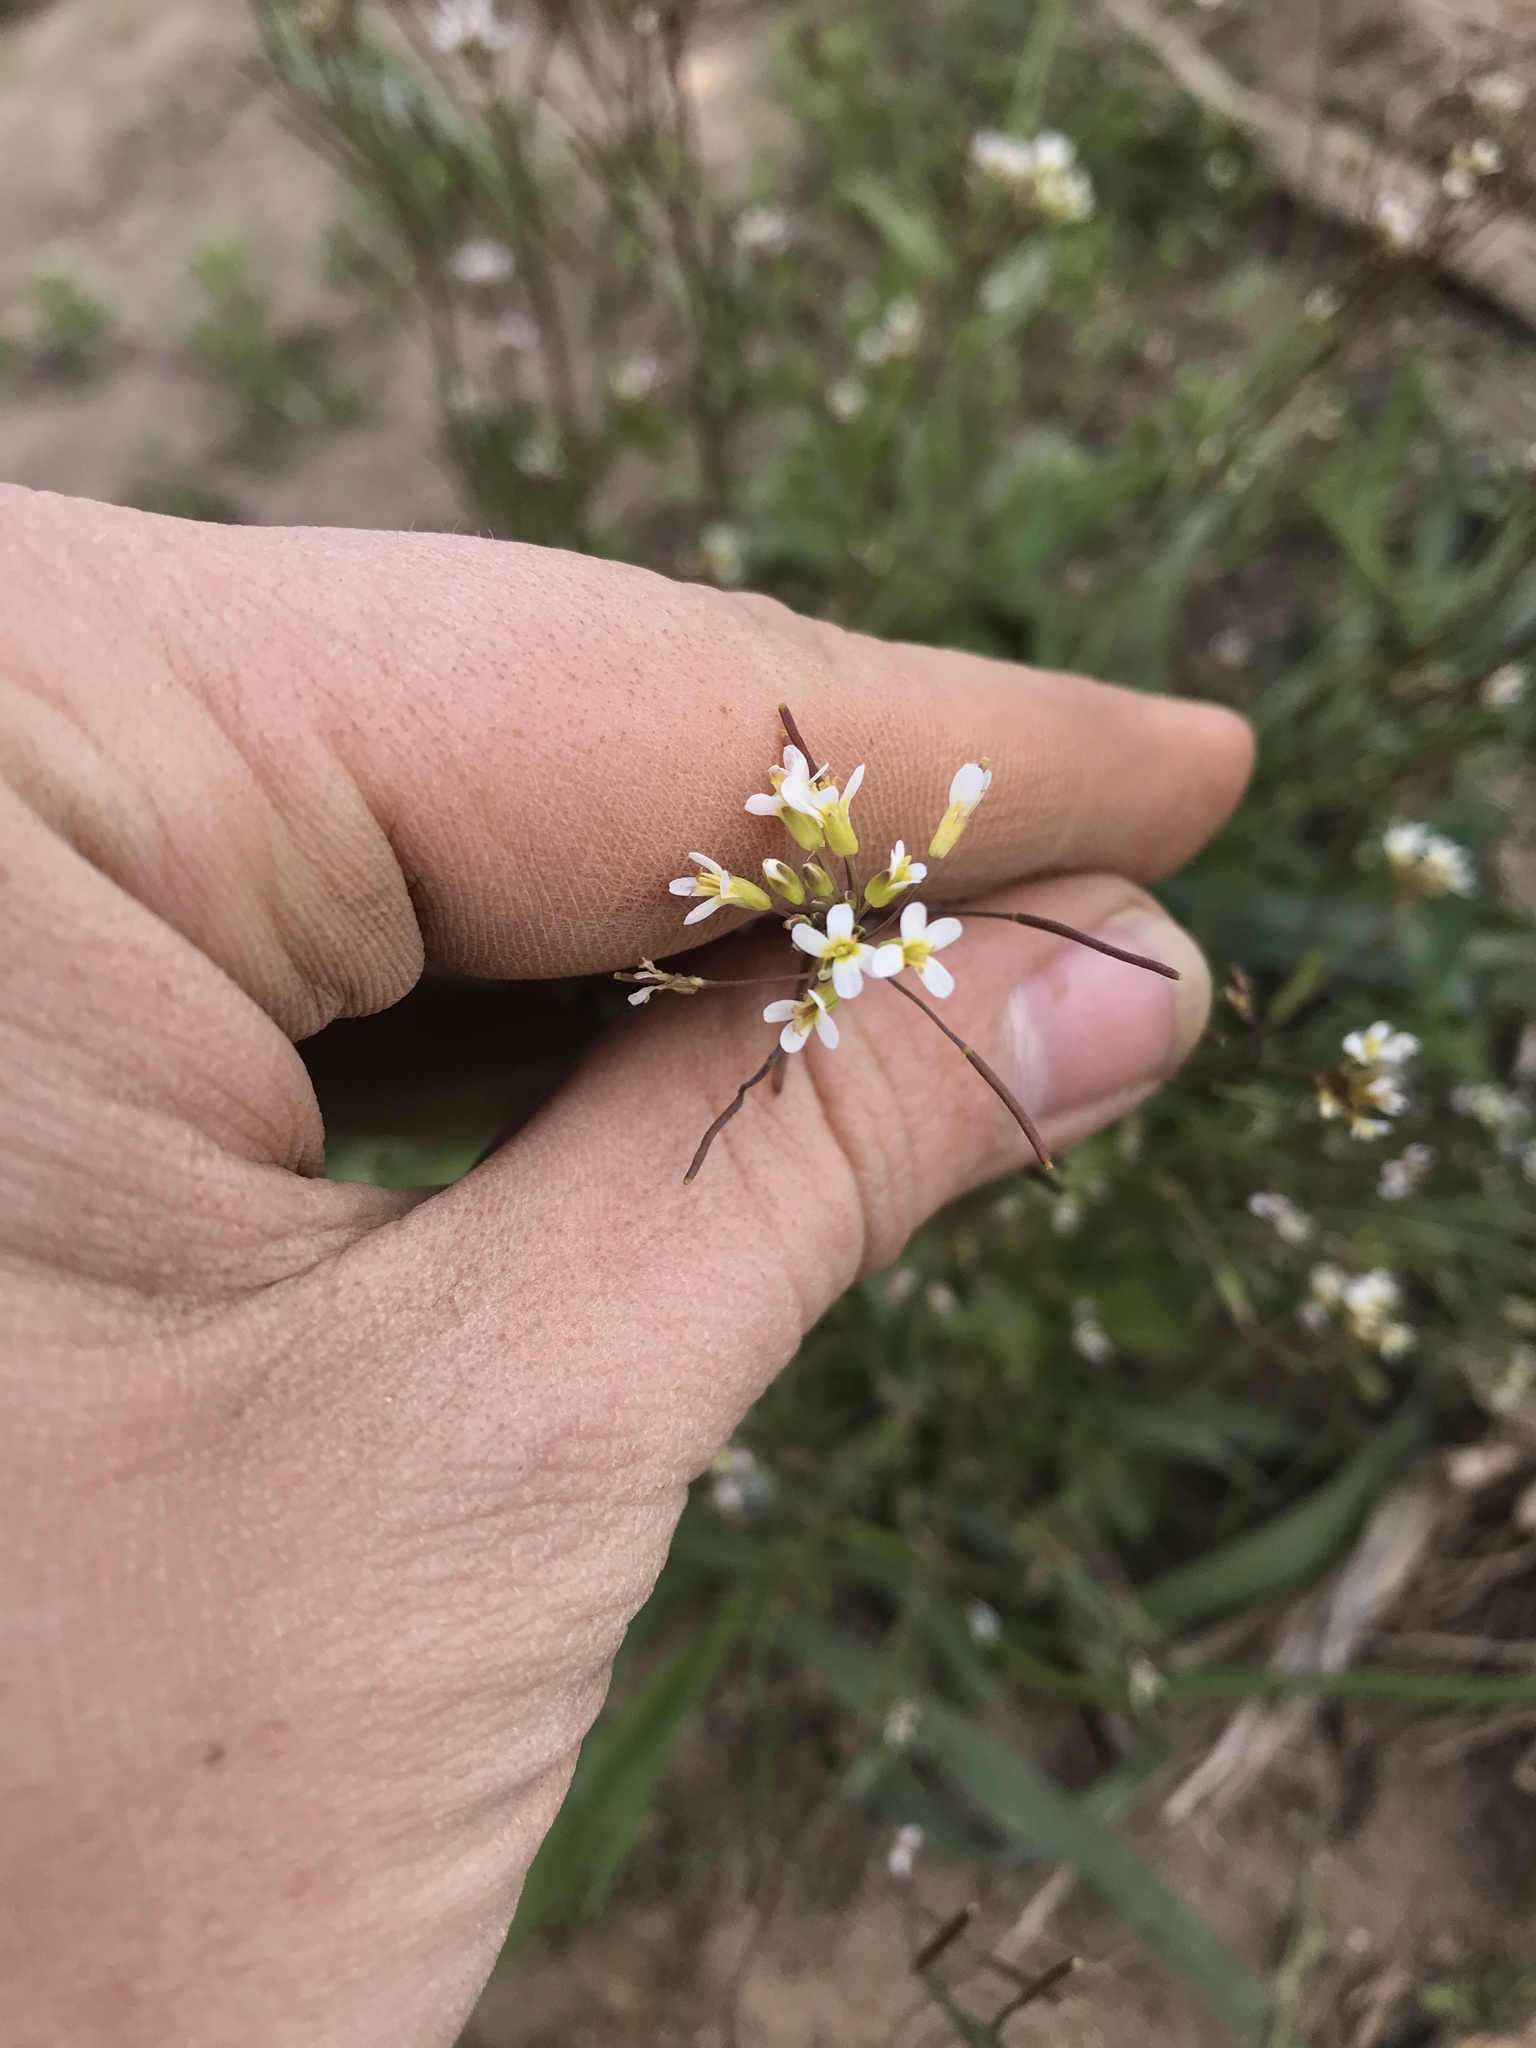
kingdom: Plantae
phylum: Tracheophyta
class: Magnoliopsida
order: Brassicales
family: Brassicaceae
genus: Arabidopsis
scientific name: Arabidopsis thaliana
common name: Thale cress
